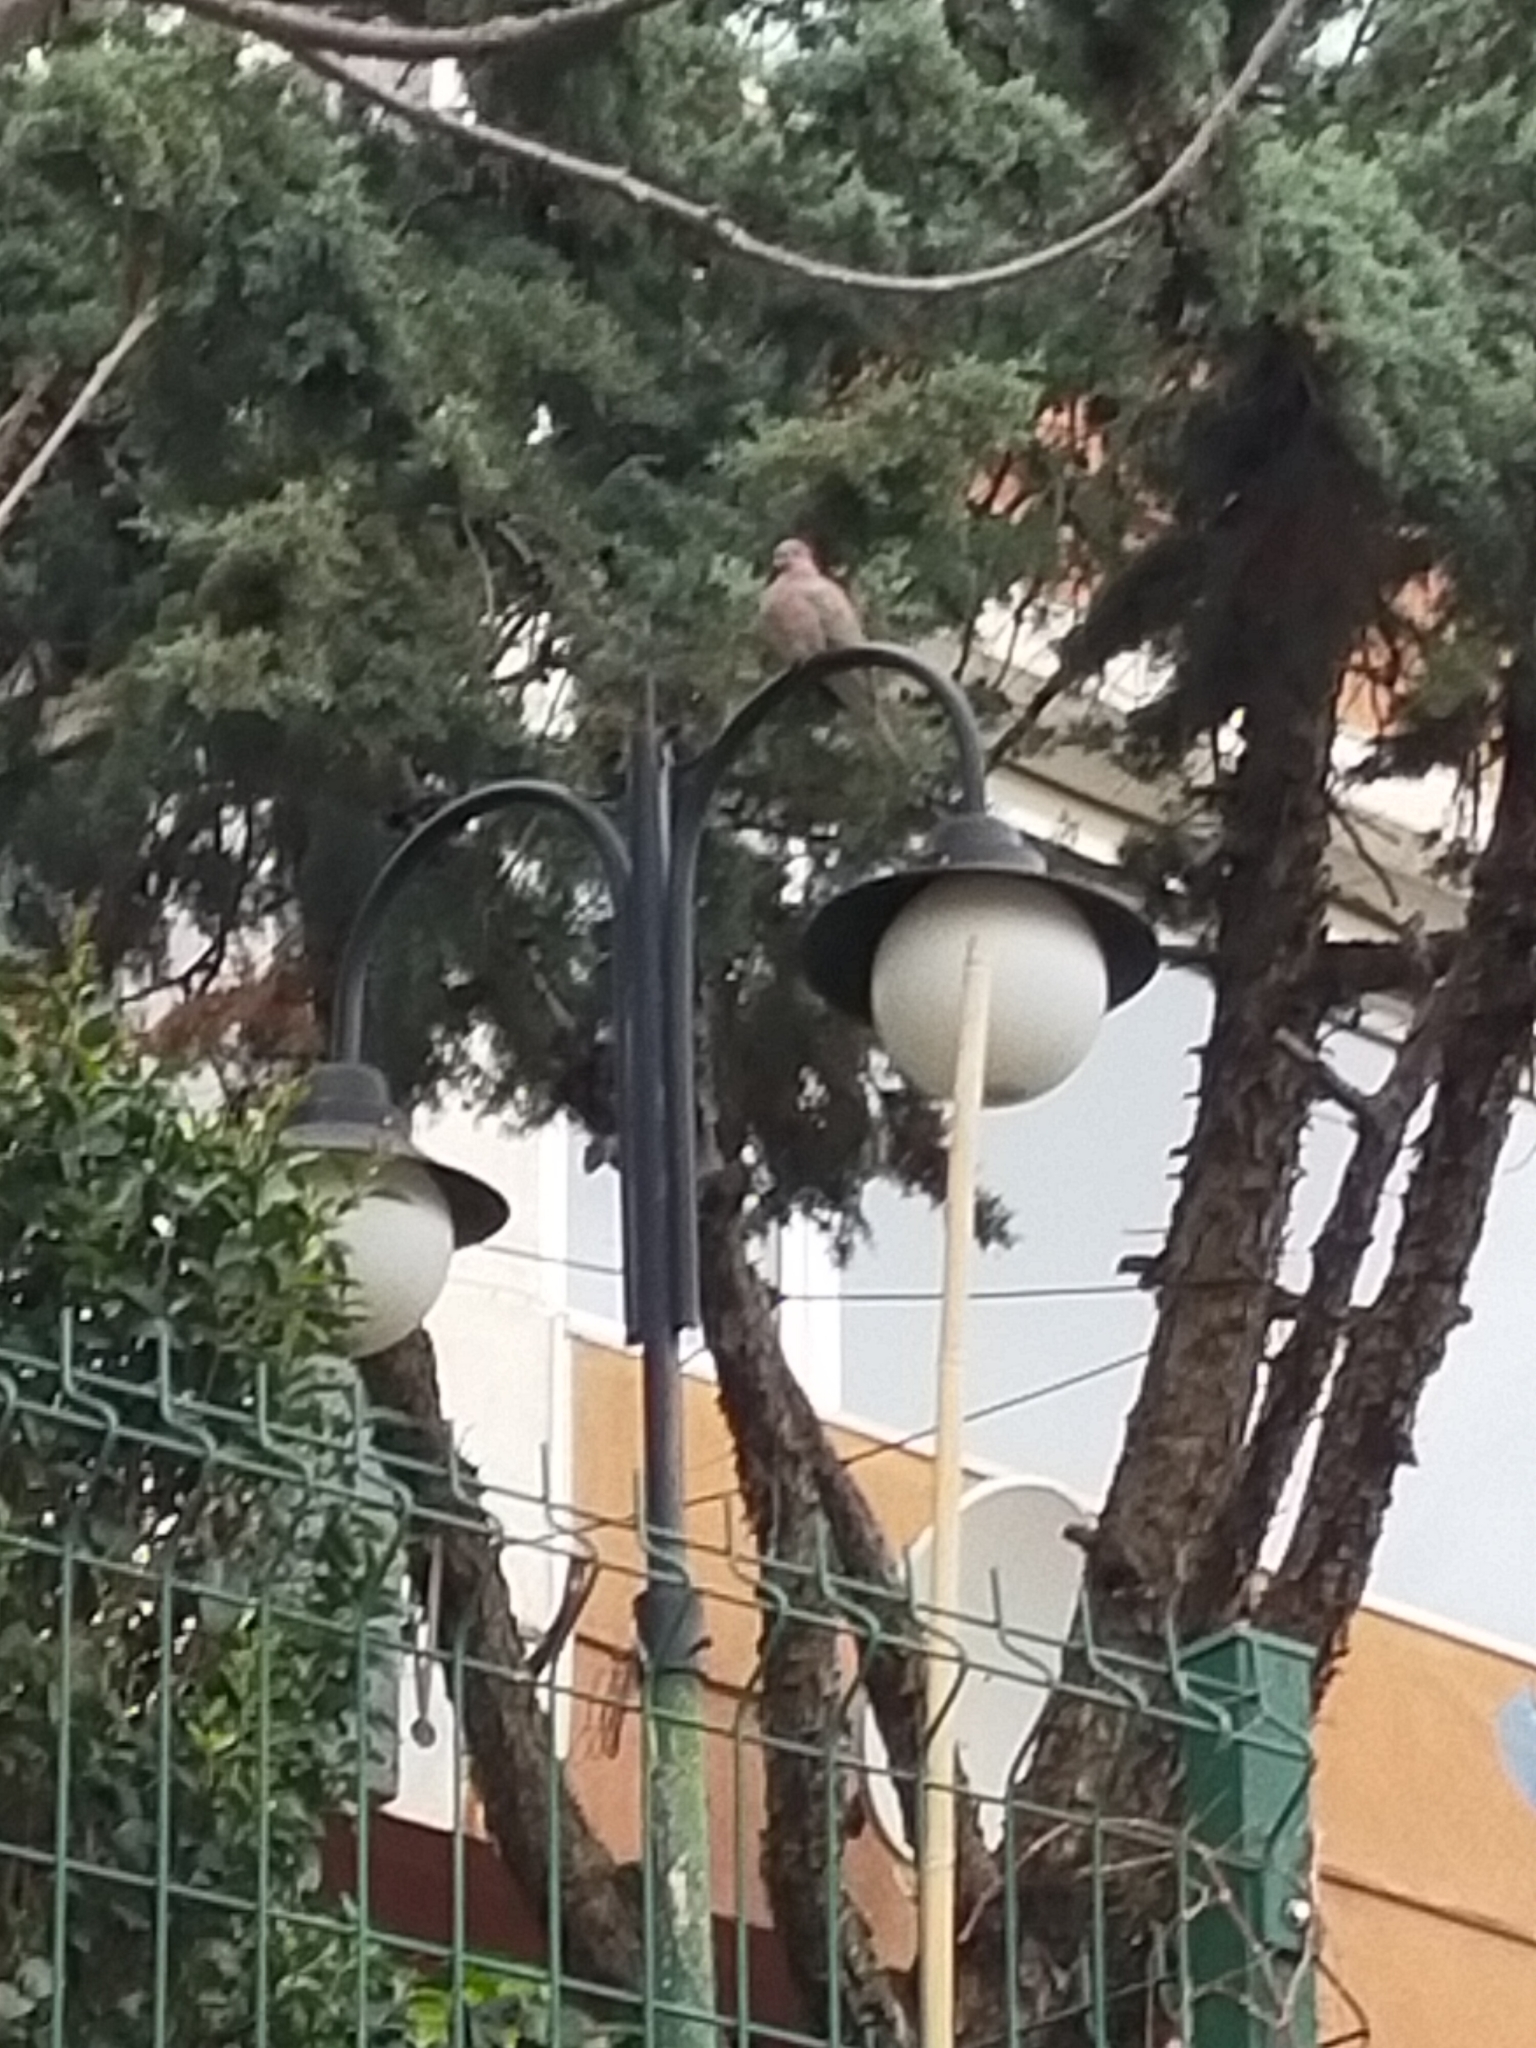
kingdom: Animalia
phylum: Chordata
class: Aves
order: Columbiformes
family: Columbidae
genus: Spilopelia
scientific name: Spilopelia senegalensis
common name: Laughing dove
